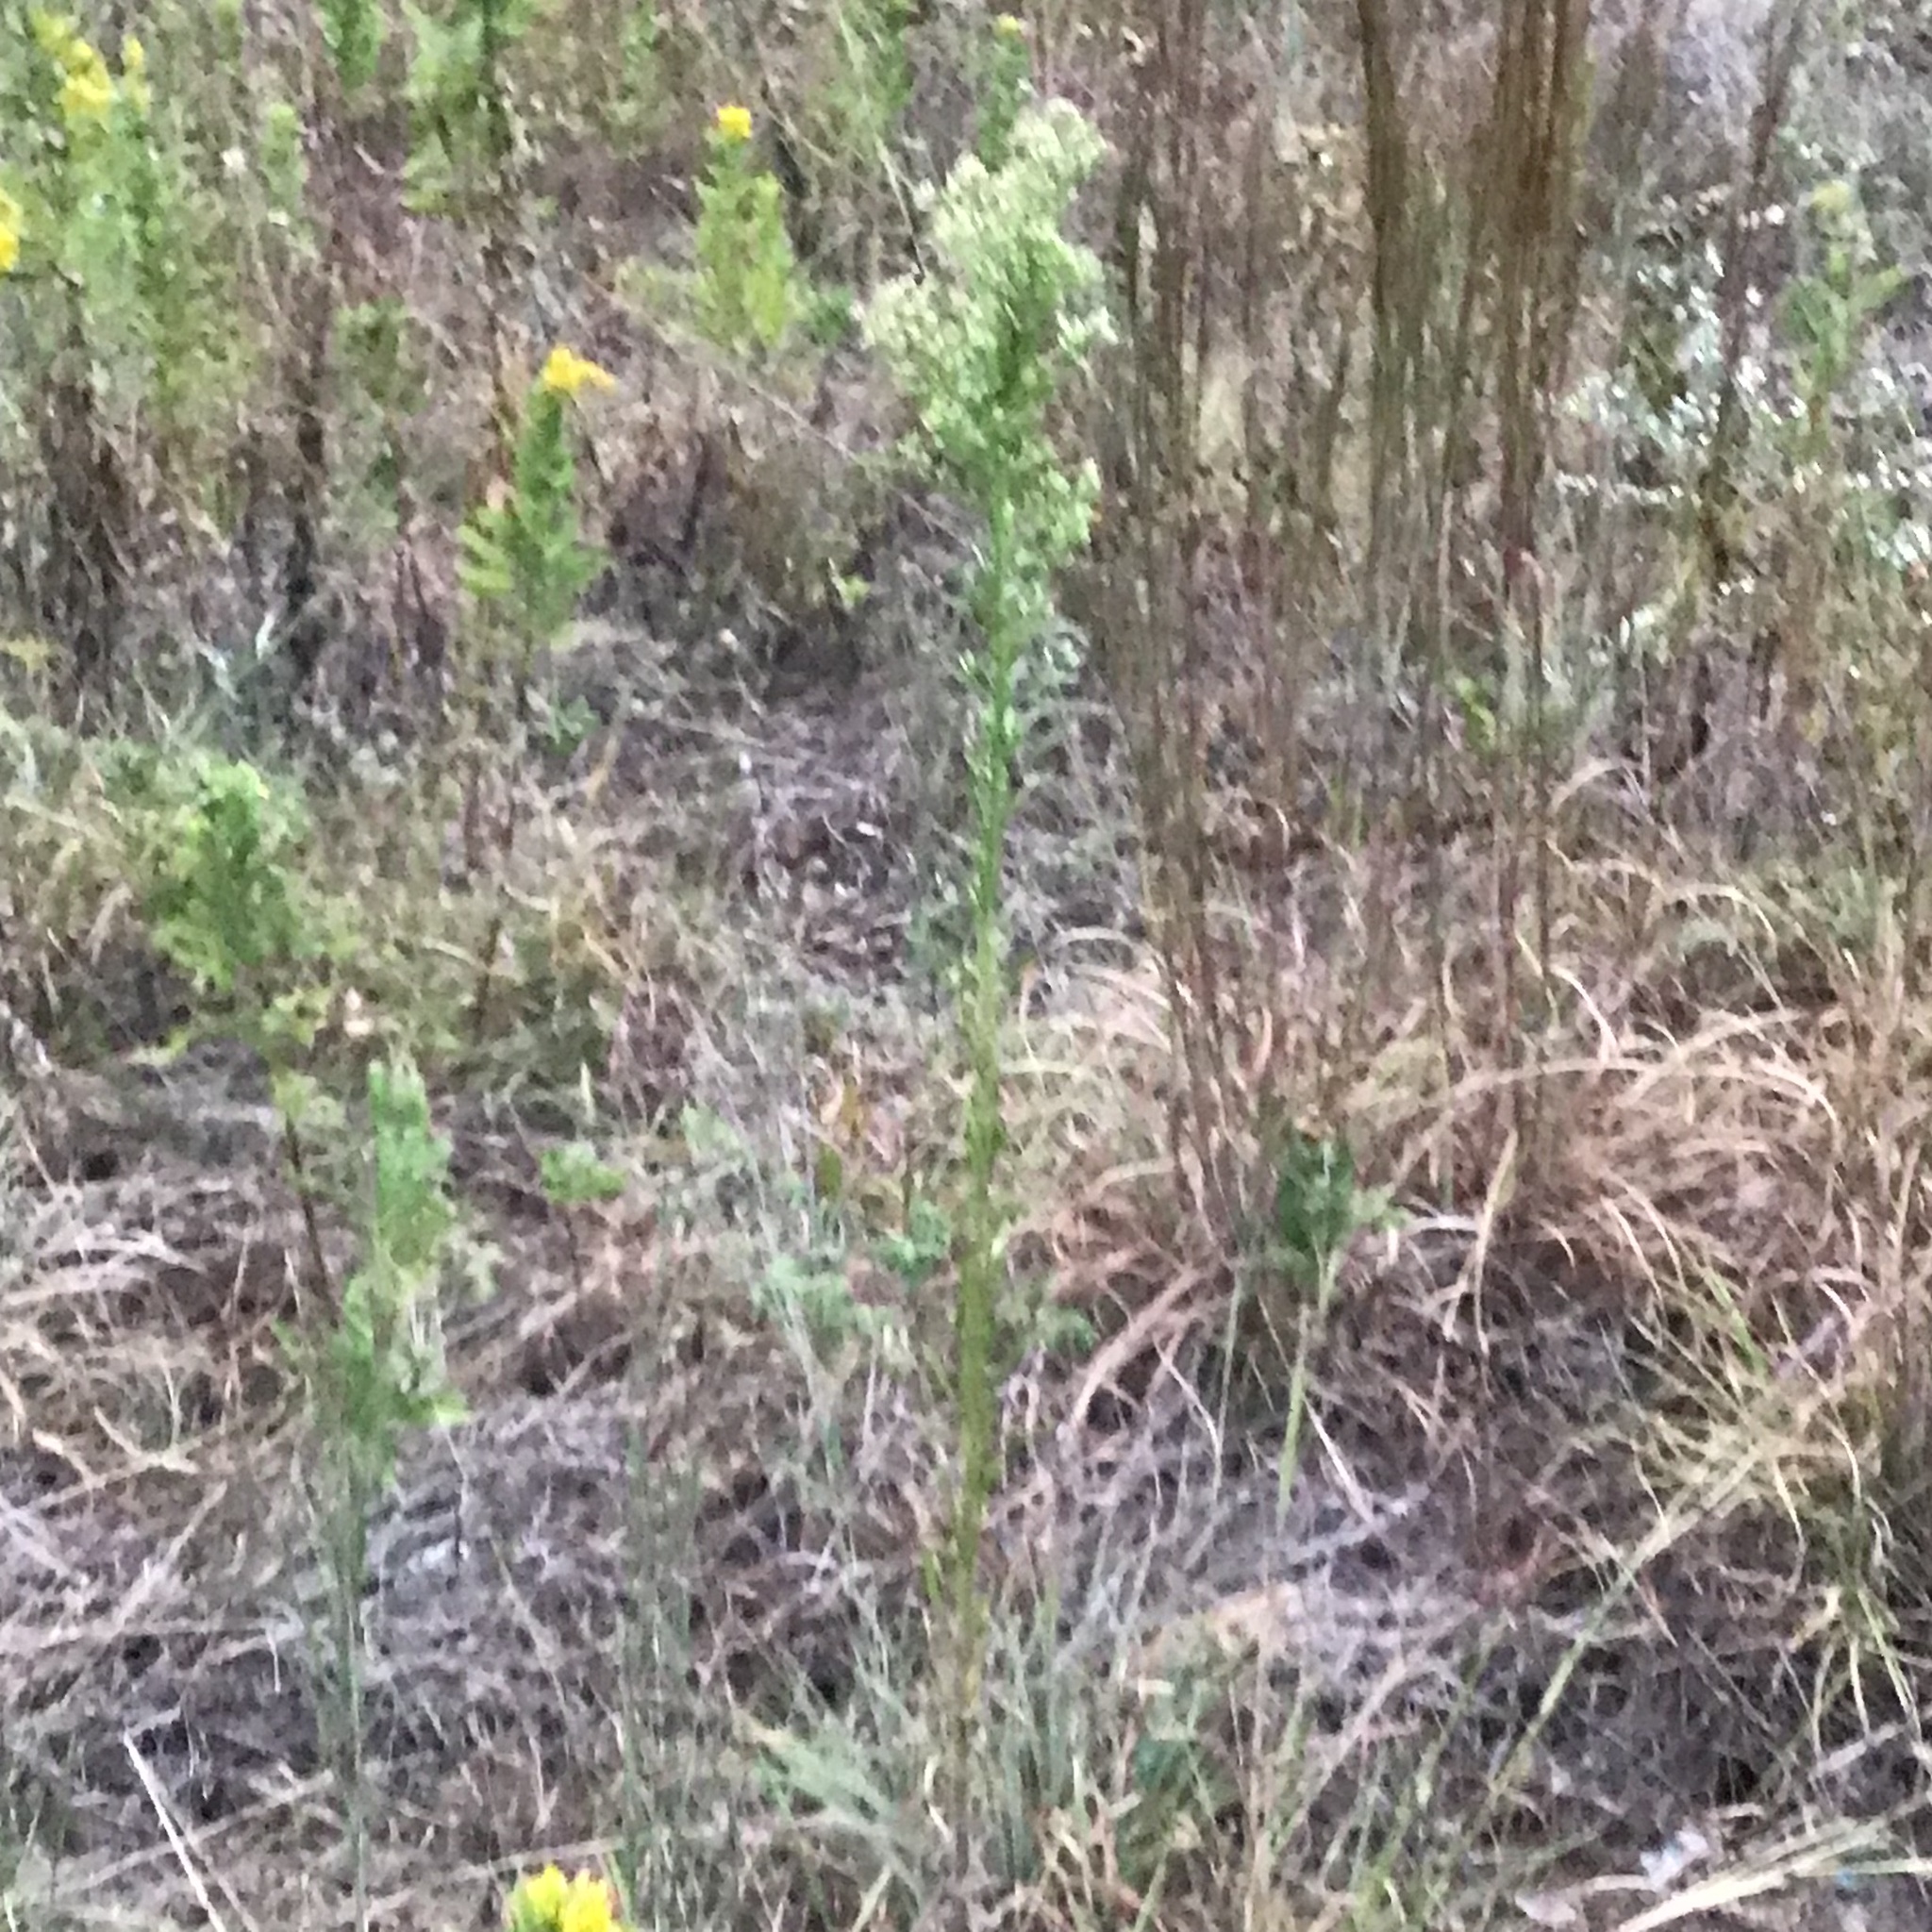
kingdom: Plantae
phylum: Tracheophyta
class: Magnoliopsida
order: Asterales
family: Asteraceae
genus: Erigeron
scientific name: Erigeron canadensis
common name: Canadian fleabane
